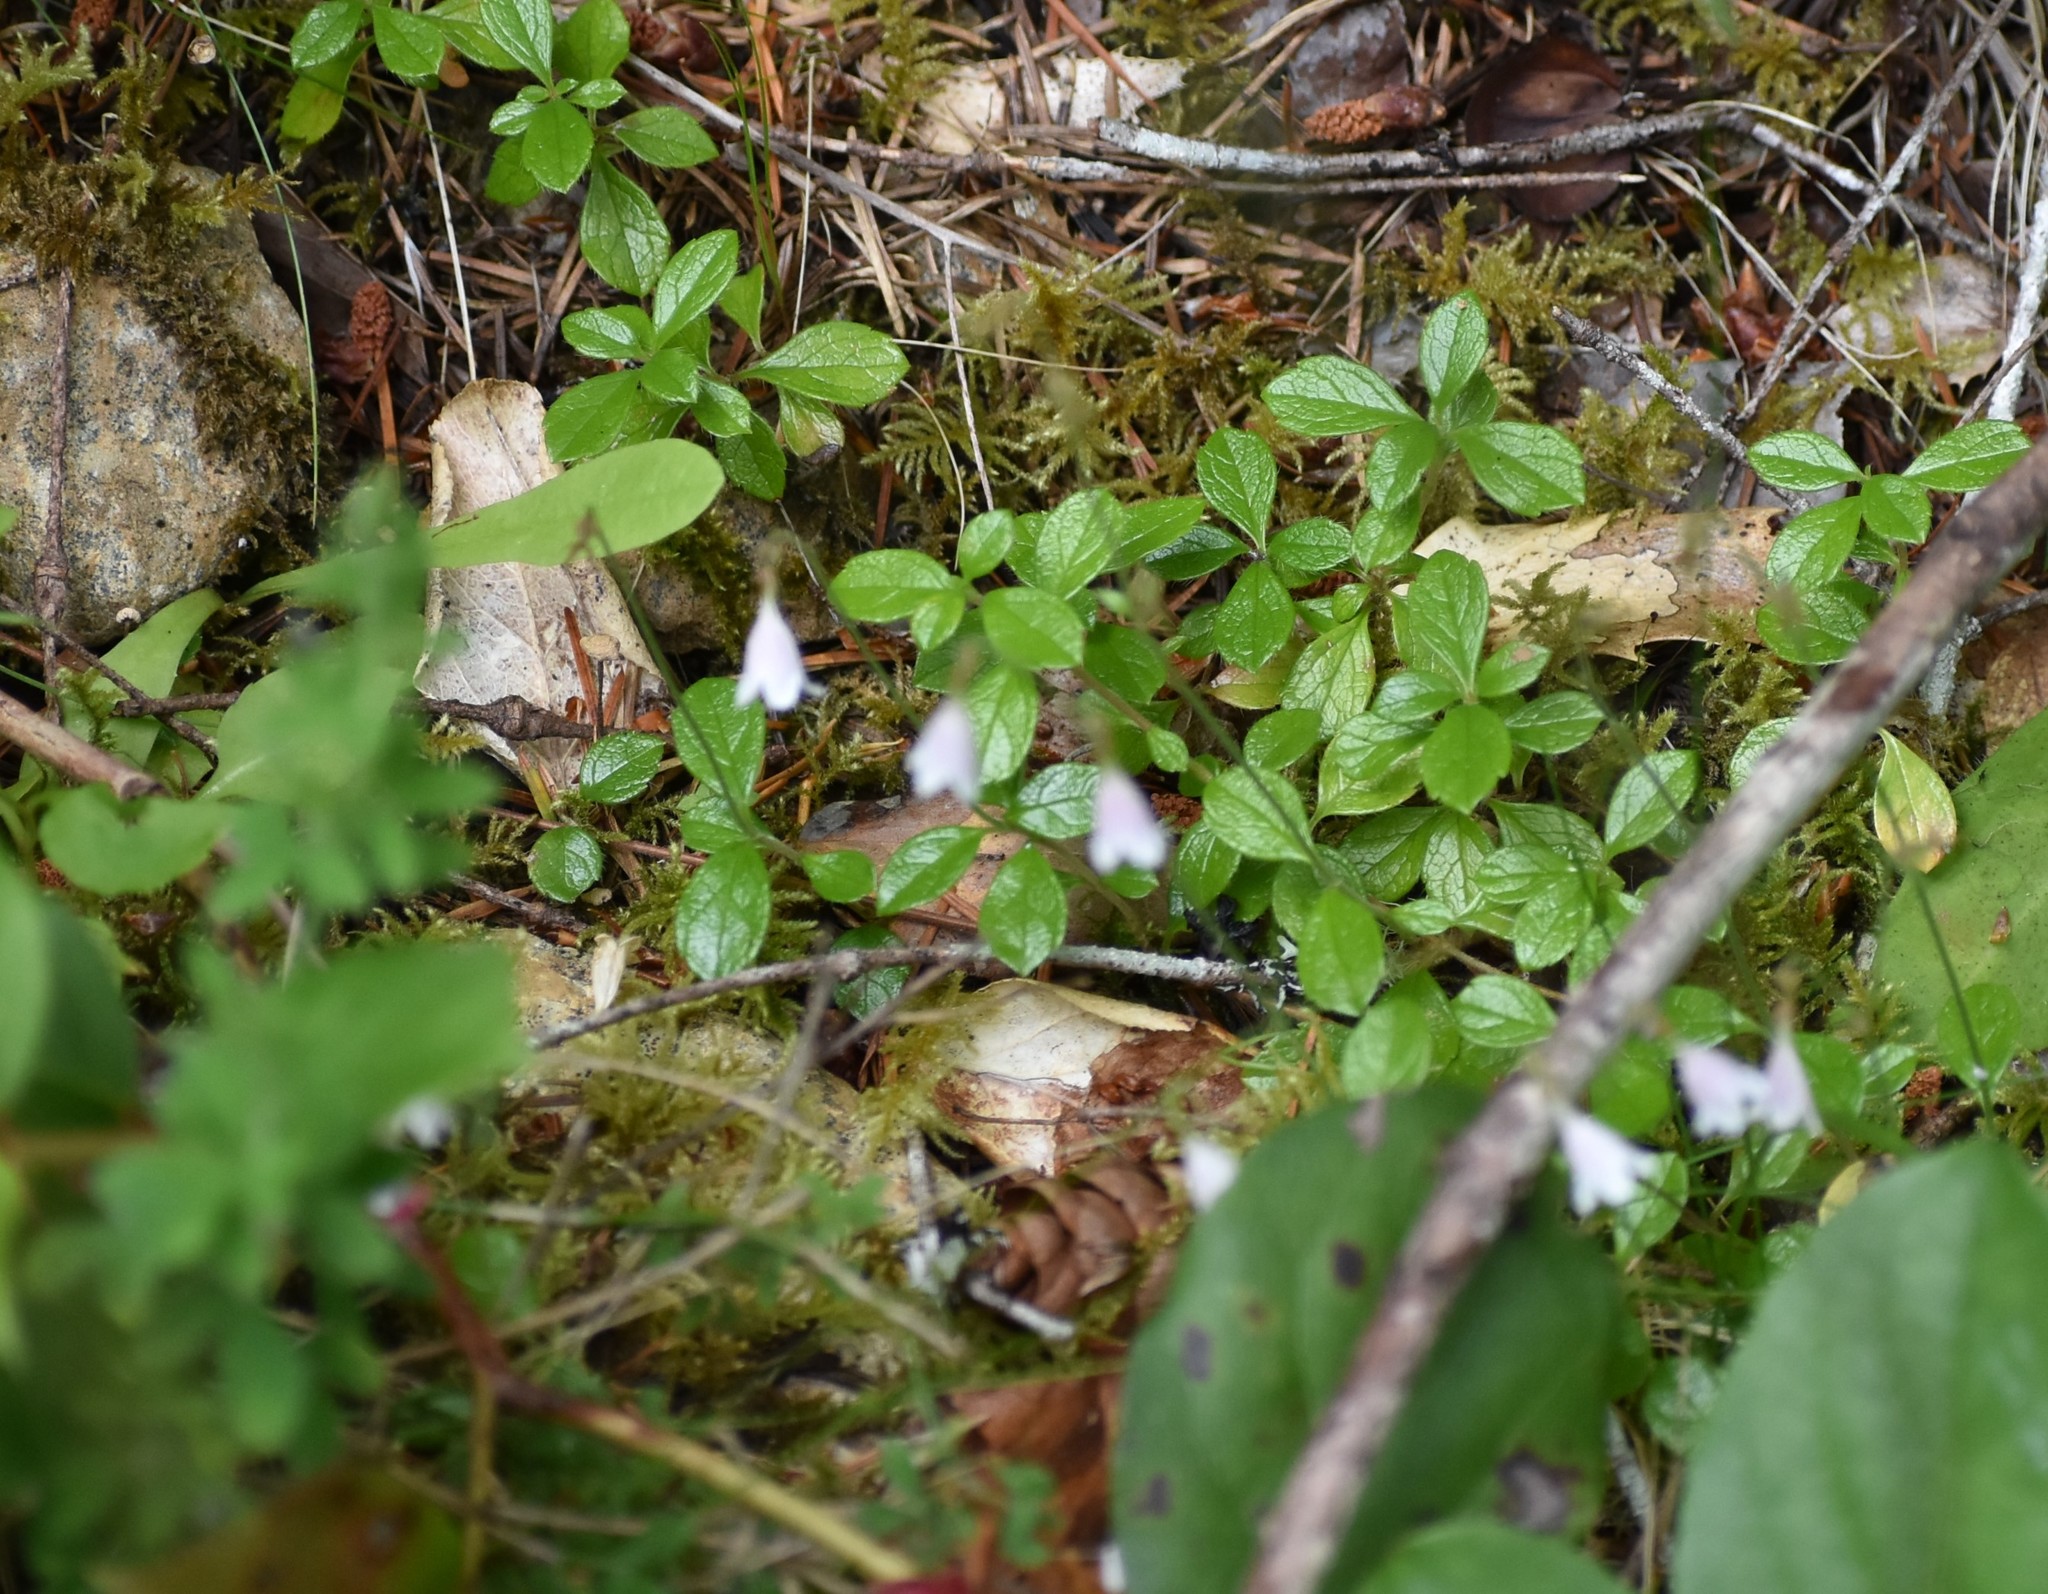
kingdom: Plantae
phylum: Tracheophyta
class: Magnoliopsida
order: Dipsacales
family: Caprifoliaceae
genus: Linnaea
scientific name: Linnaea borealis
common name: Twinflower
